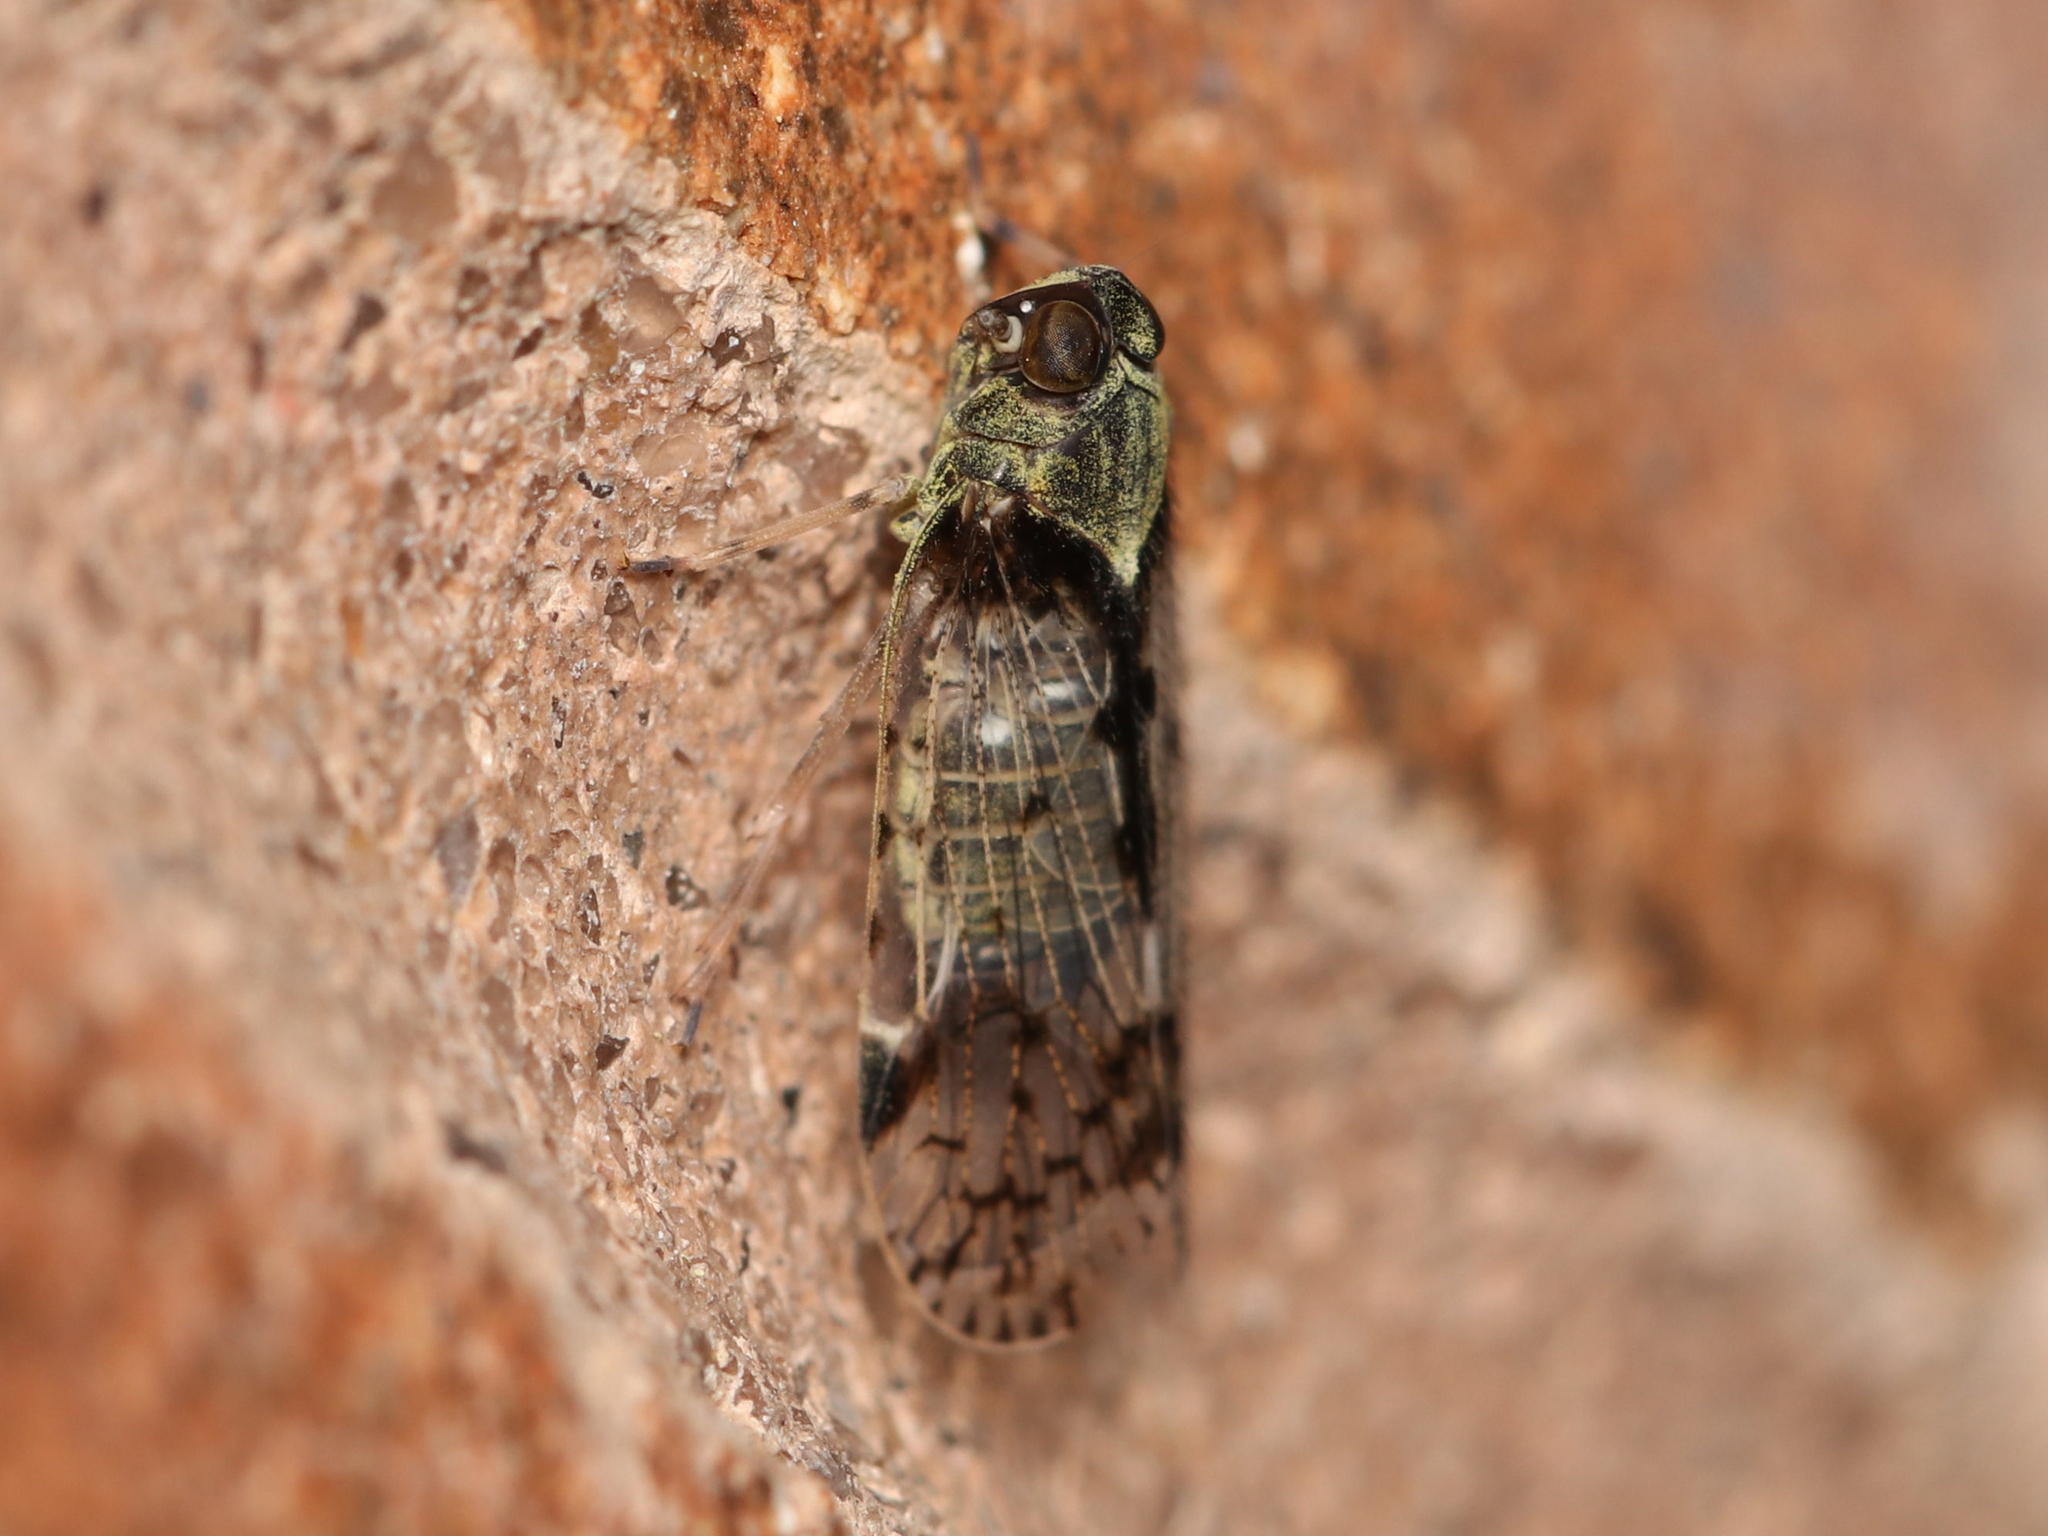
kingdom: Animalia
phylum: Arthropoda
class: Insecta
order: Hemiptera
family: Cixiidae
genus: Melanoliarus
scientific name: Melanoliarus placitus
